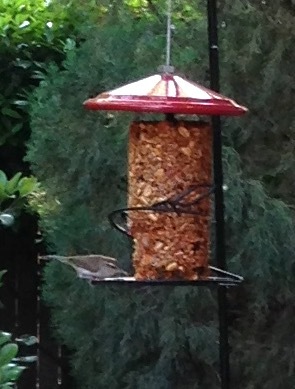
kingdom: Animalia
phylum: Chordata
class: Aves
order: Passeriformes
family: Troglodytidae
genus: Thryomanes
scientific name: Thryomanes bewickii
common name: Bewick's wren
